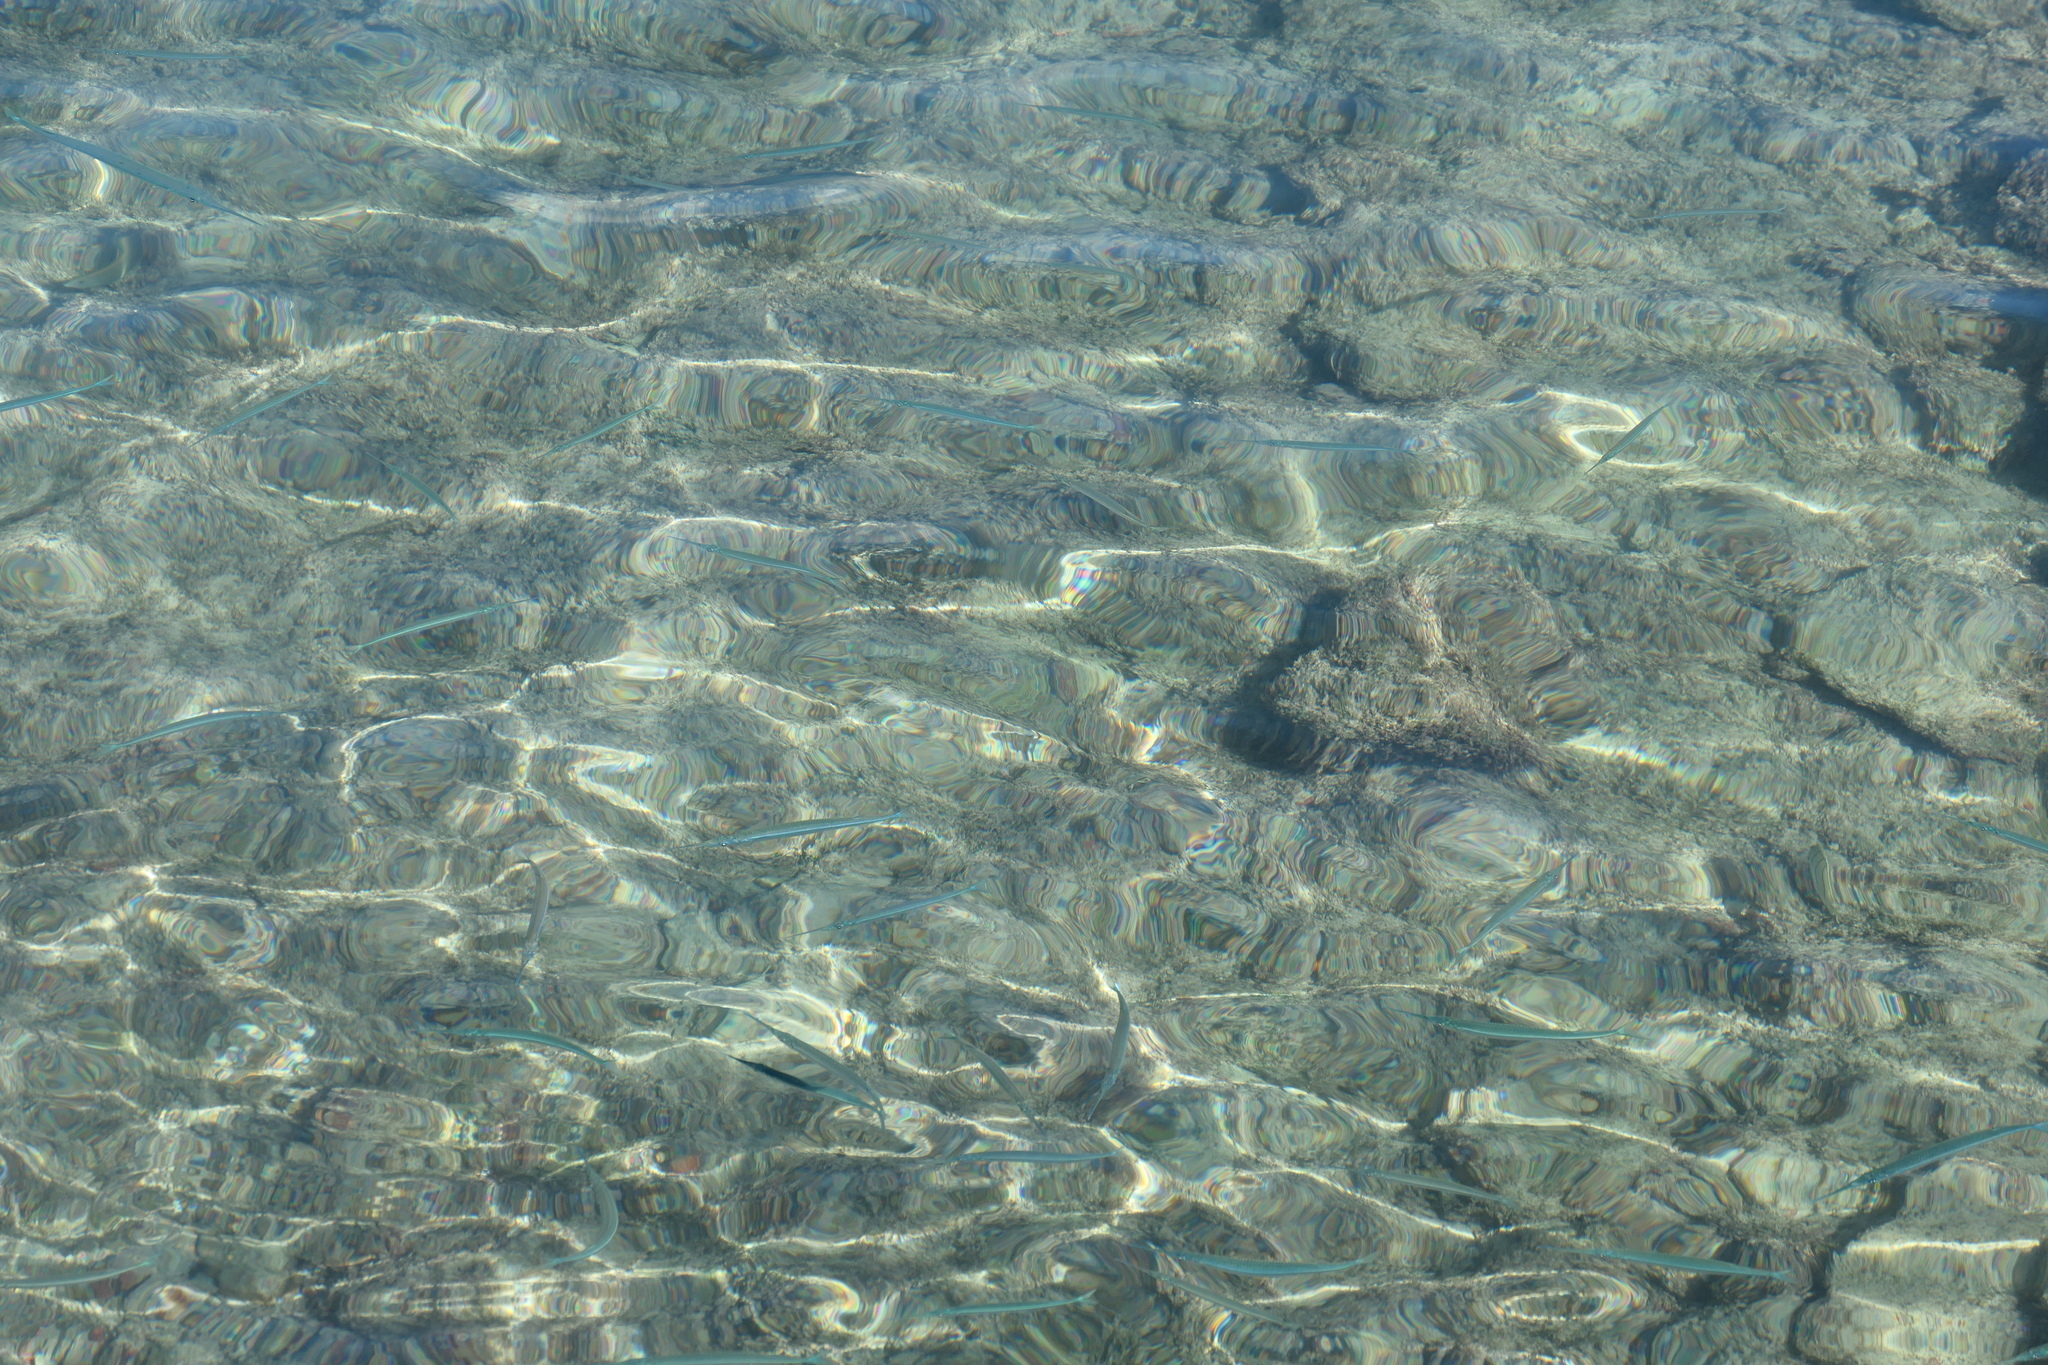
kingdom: Animalia
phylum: Chordata
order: Beloniformes
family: Belonidae
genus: Platybelone
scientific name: Platybelone argalus
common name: Keeltail needlefish
